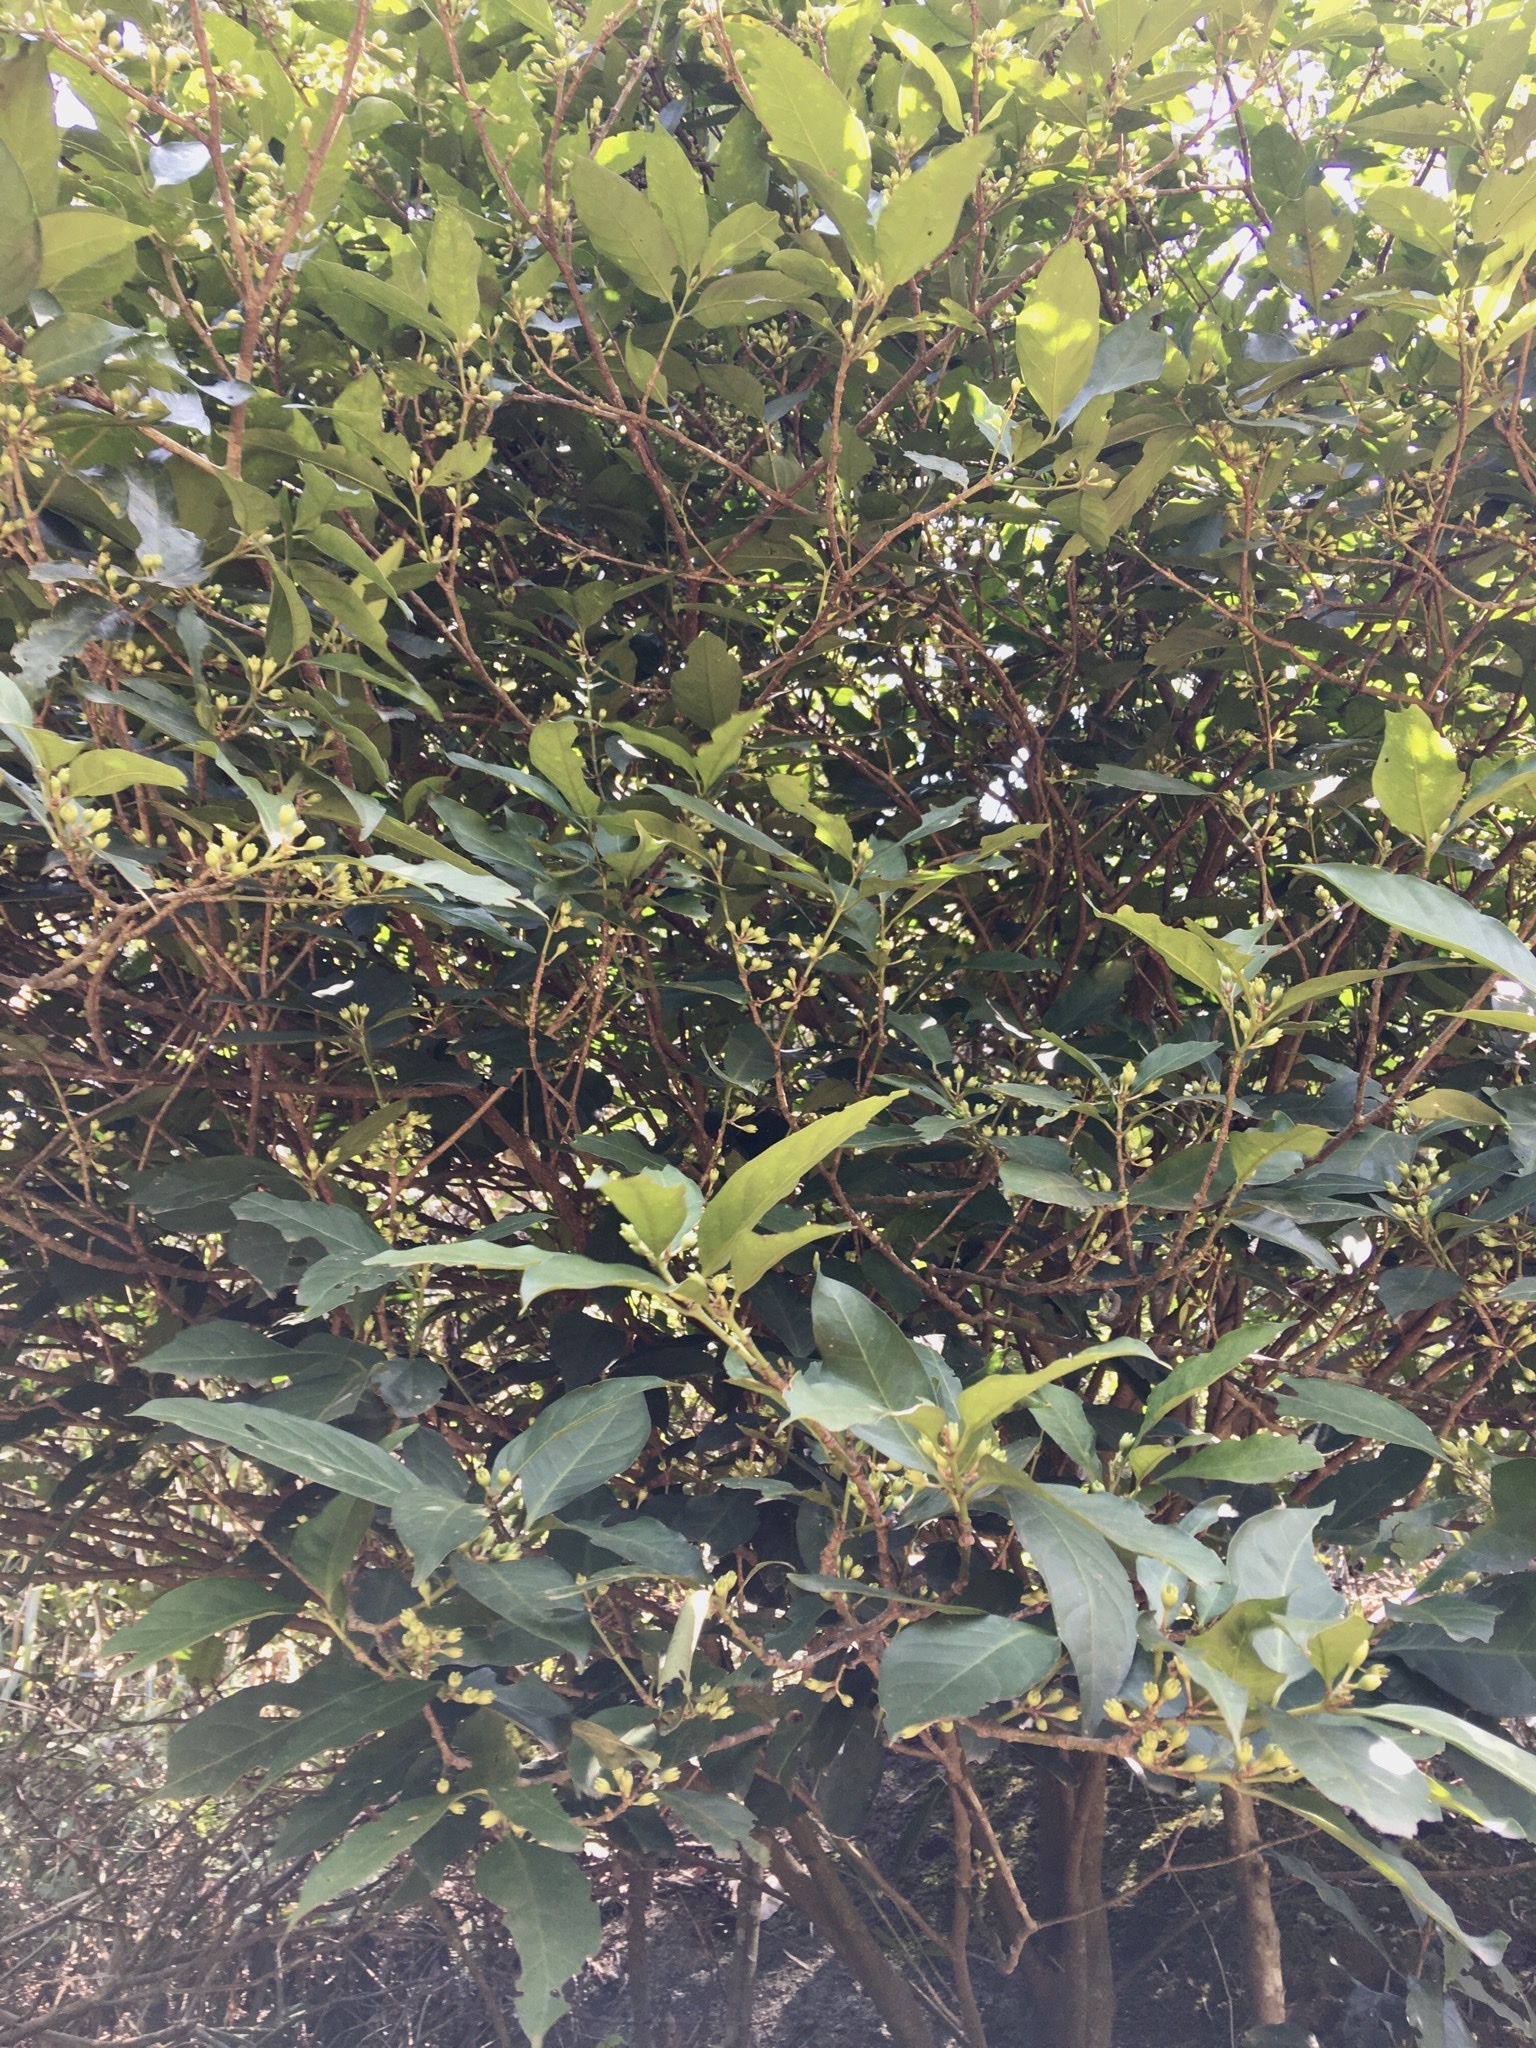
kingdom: Plantae
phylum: Tracheophyta
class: Magnoliopsida
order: Gentianales
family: Rubiaceae
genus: Psychotria
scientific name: Psychotria asiatica
